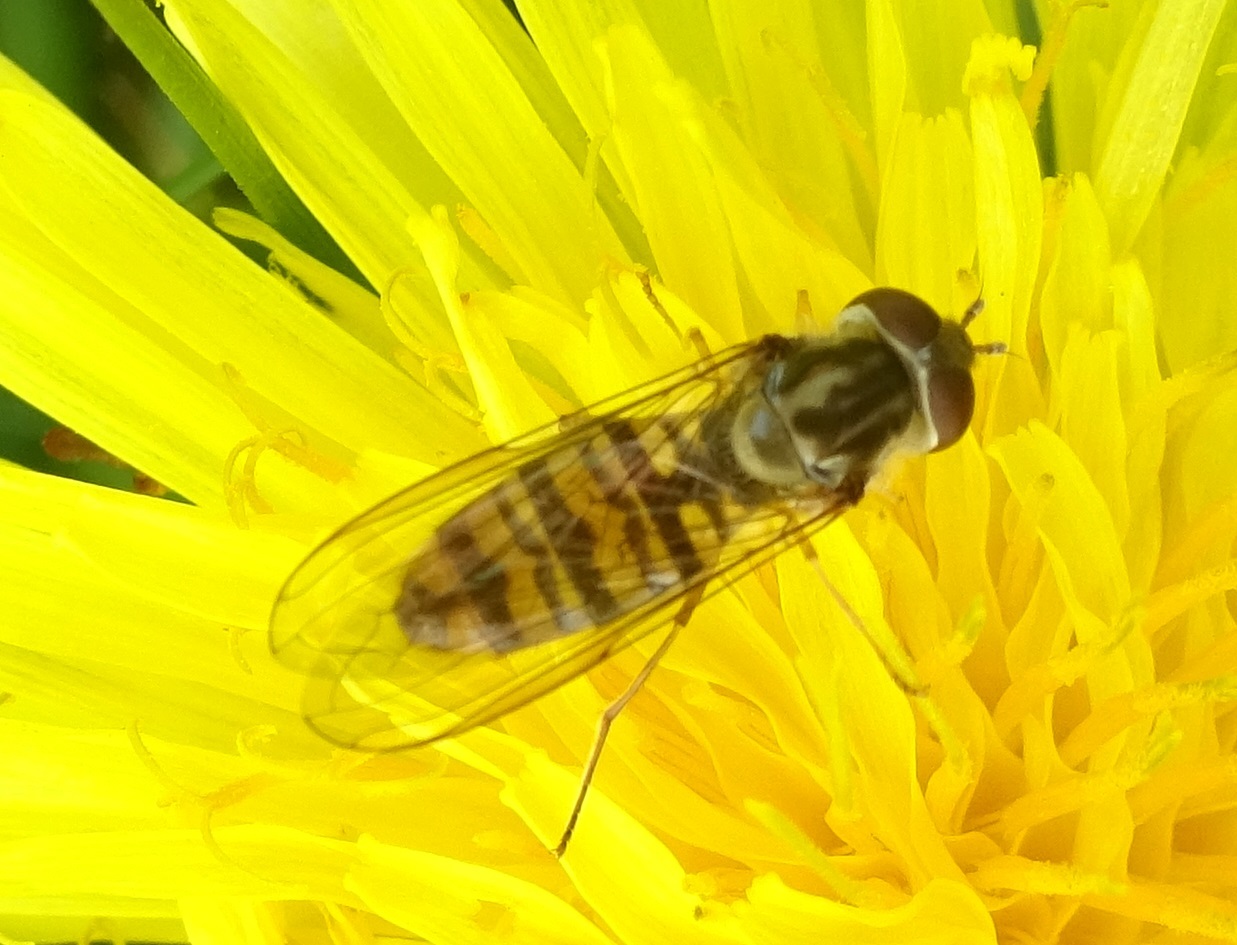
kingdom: Animalia
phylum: Arthropoda
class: Insecta
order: Diptera
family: Syrphidae
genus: Episyrphus
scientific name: Episyrphus balteatus
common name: Marmalade hoverfly
